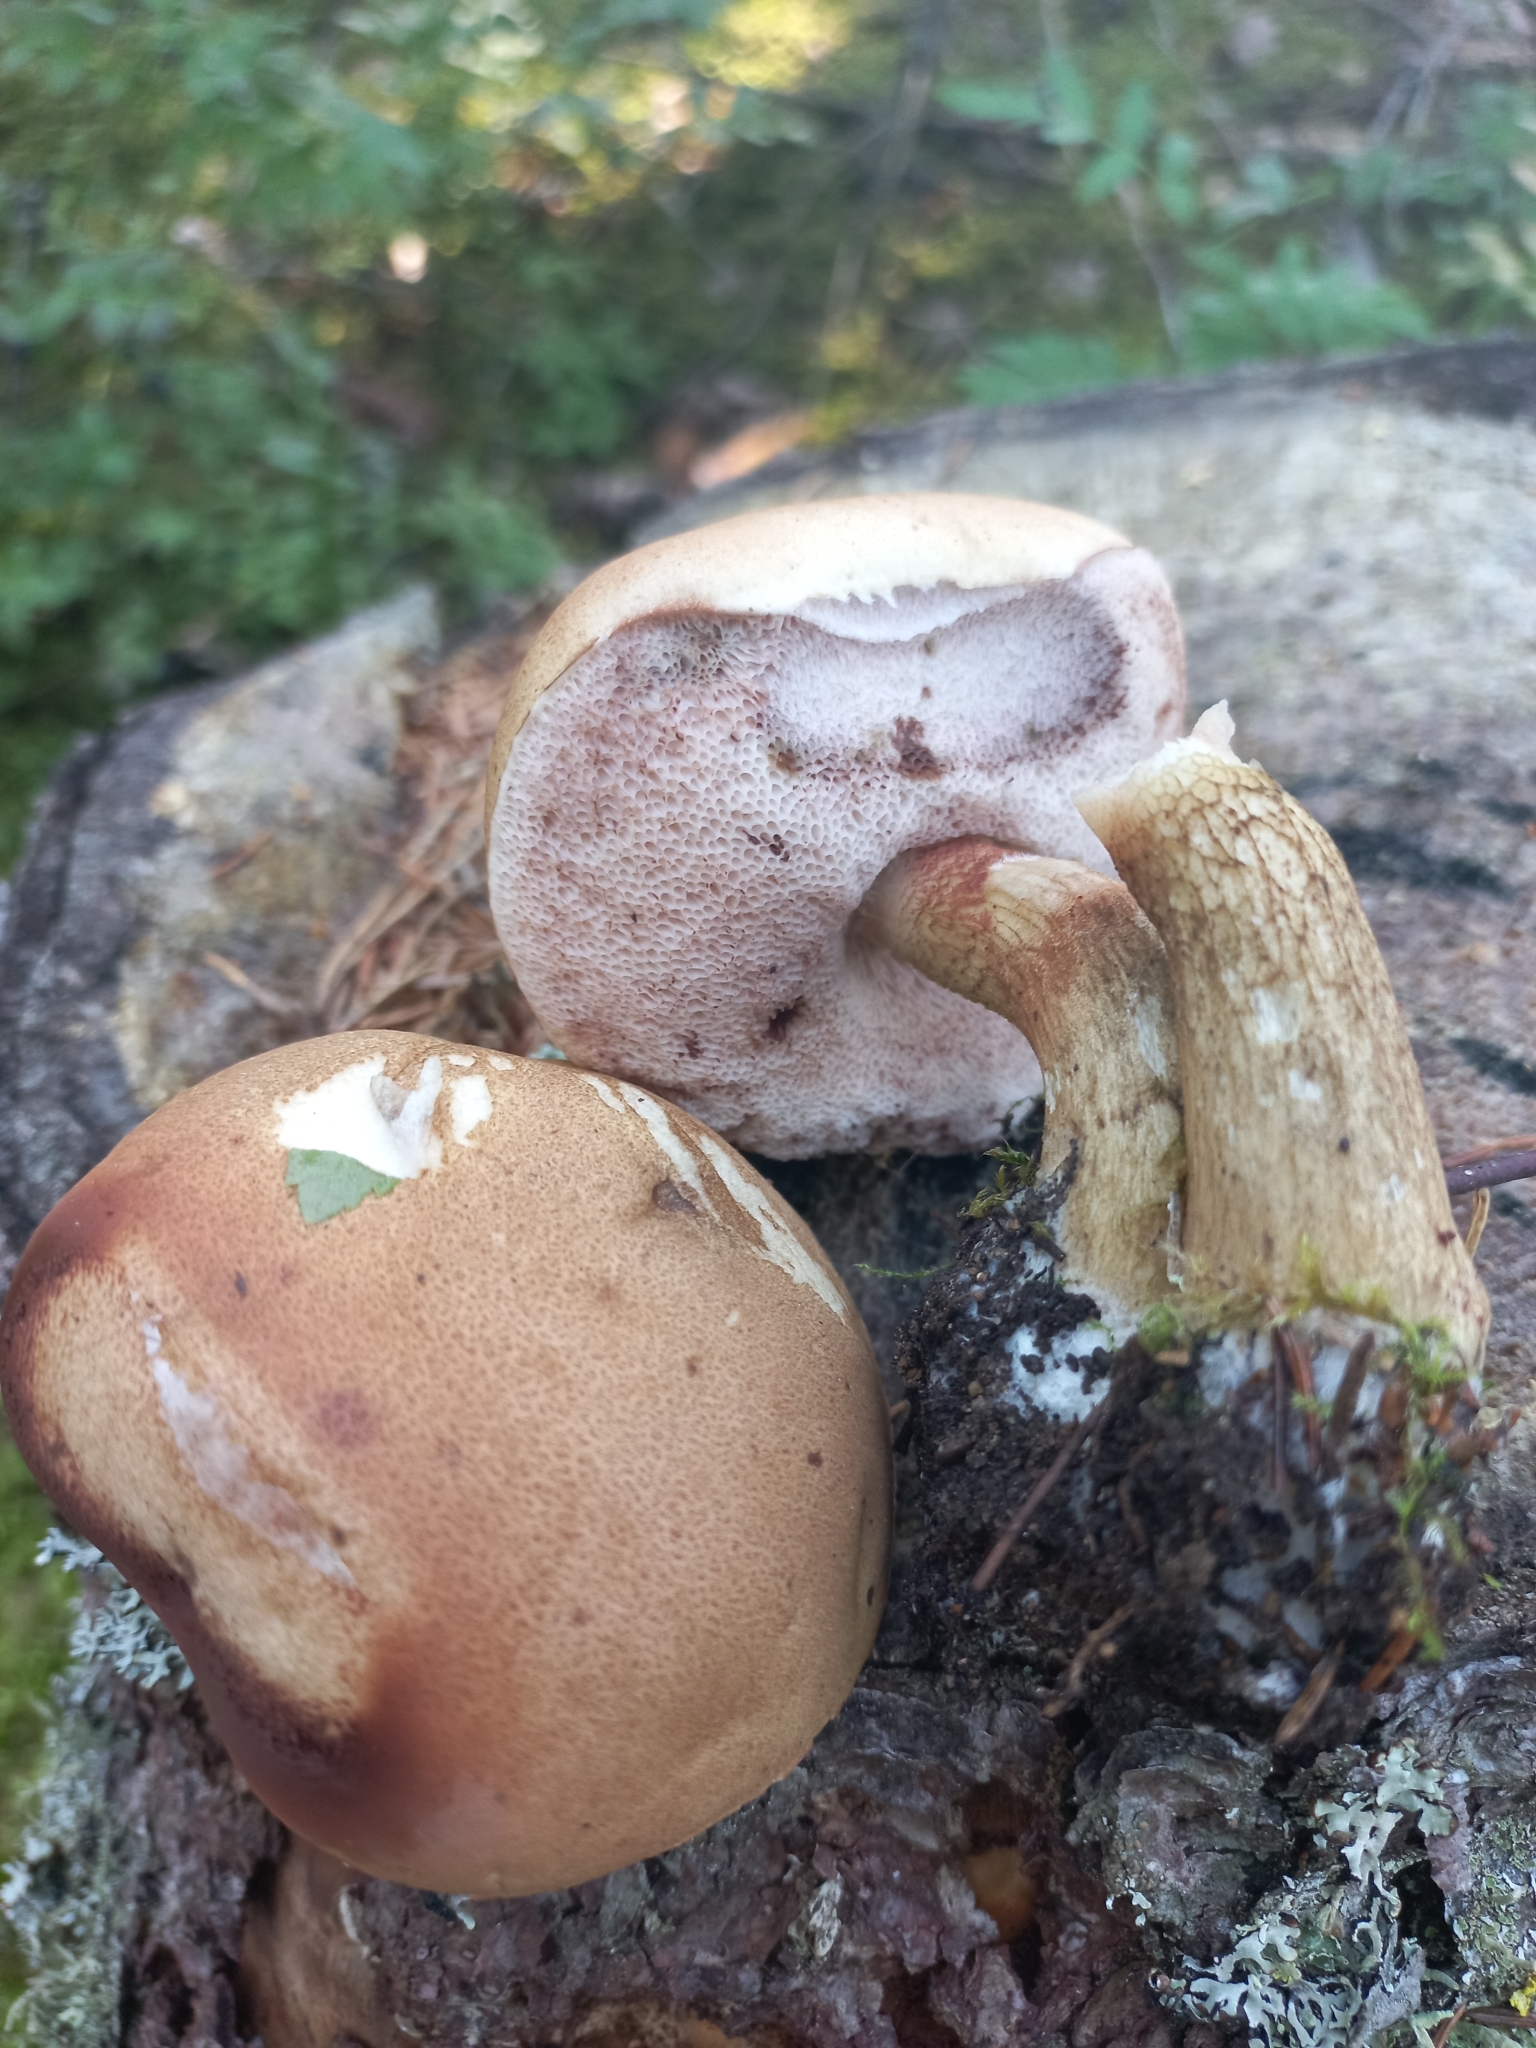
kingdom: Fungi
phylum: Basidiomycota
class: Agaricomycetes
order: Boletales
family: Boletaceae
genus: Tylopilus
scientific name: Tylopilus felleus
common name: Bitter bolete
